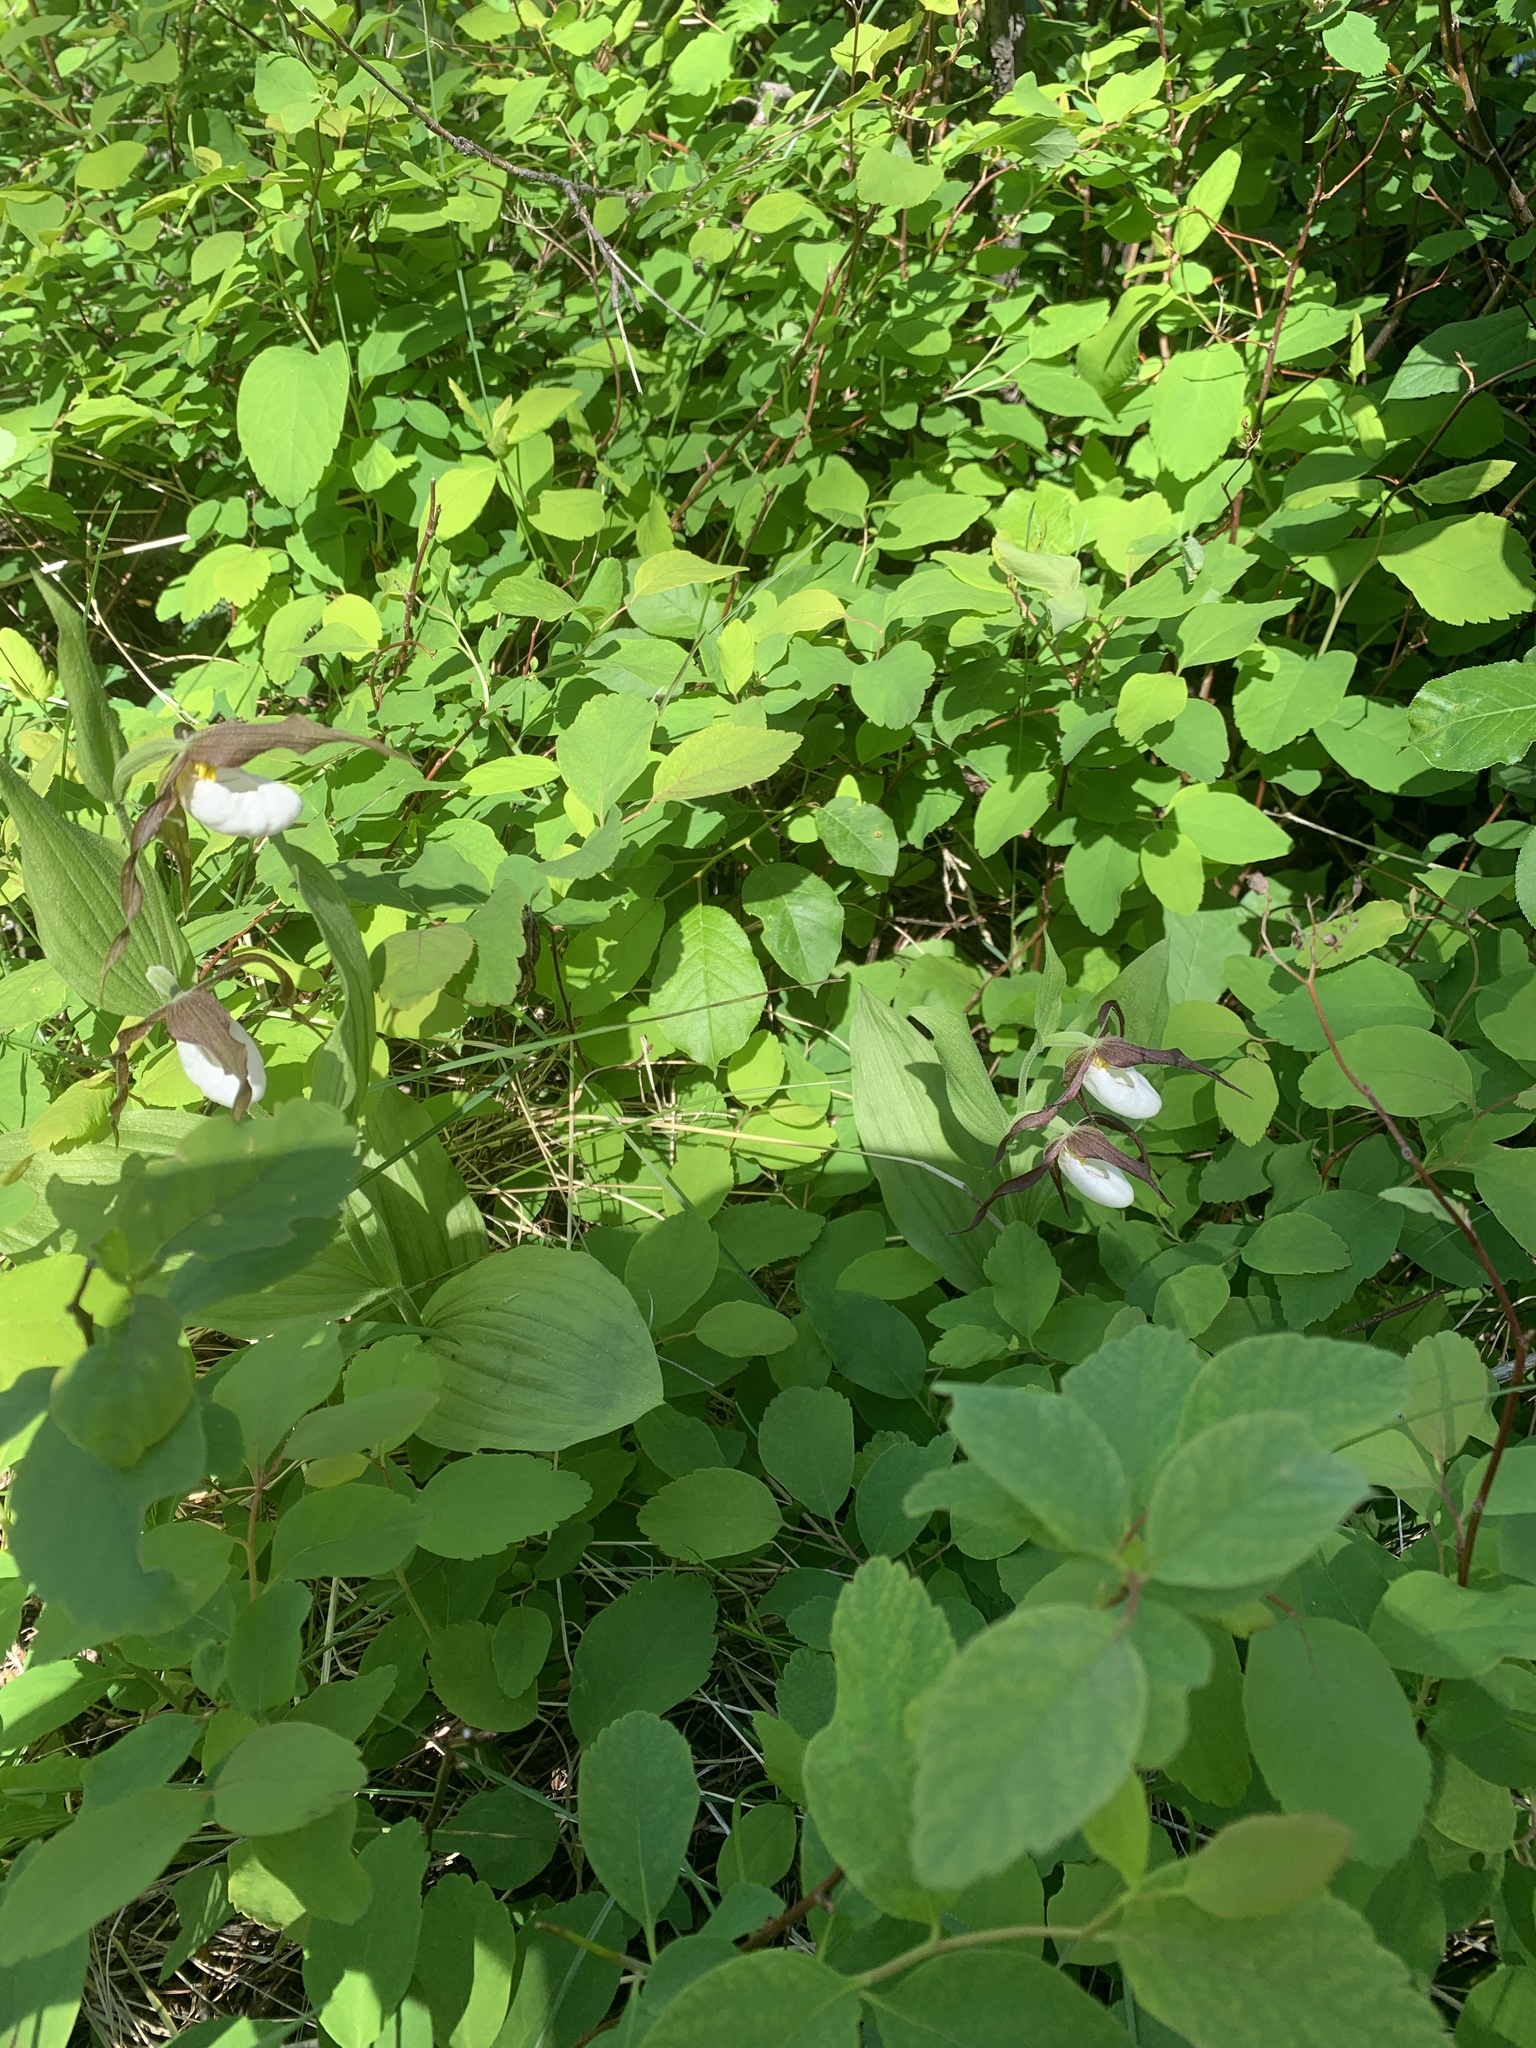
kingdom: Plantae
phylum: Tracheophyta
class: Liliopsida
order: Asparagales
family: Orchidaceae
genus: Cypripedium
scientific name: Cypripedium montanum
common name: Mountain lady's-slipper
